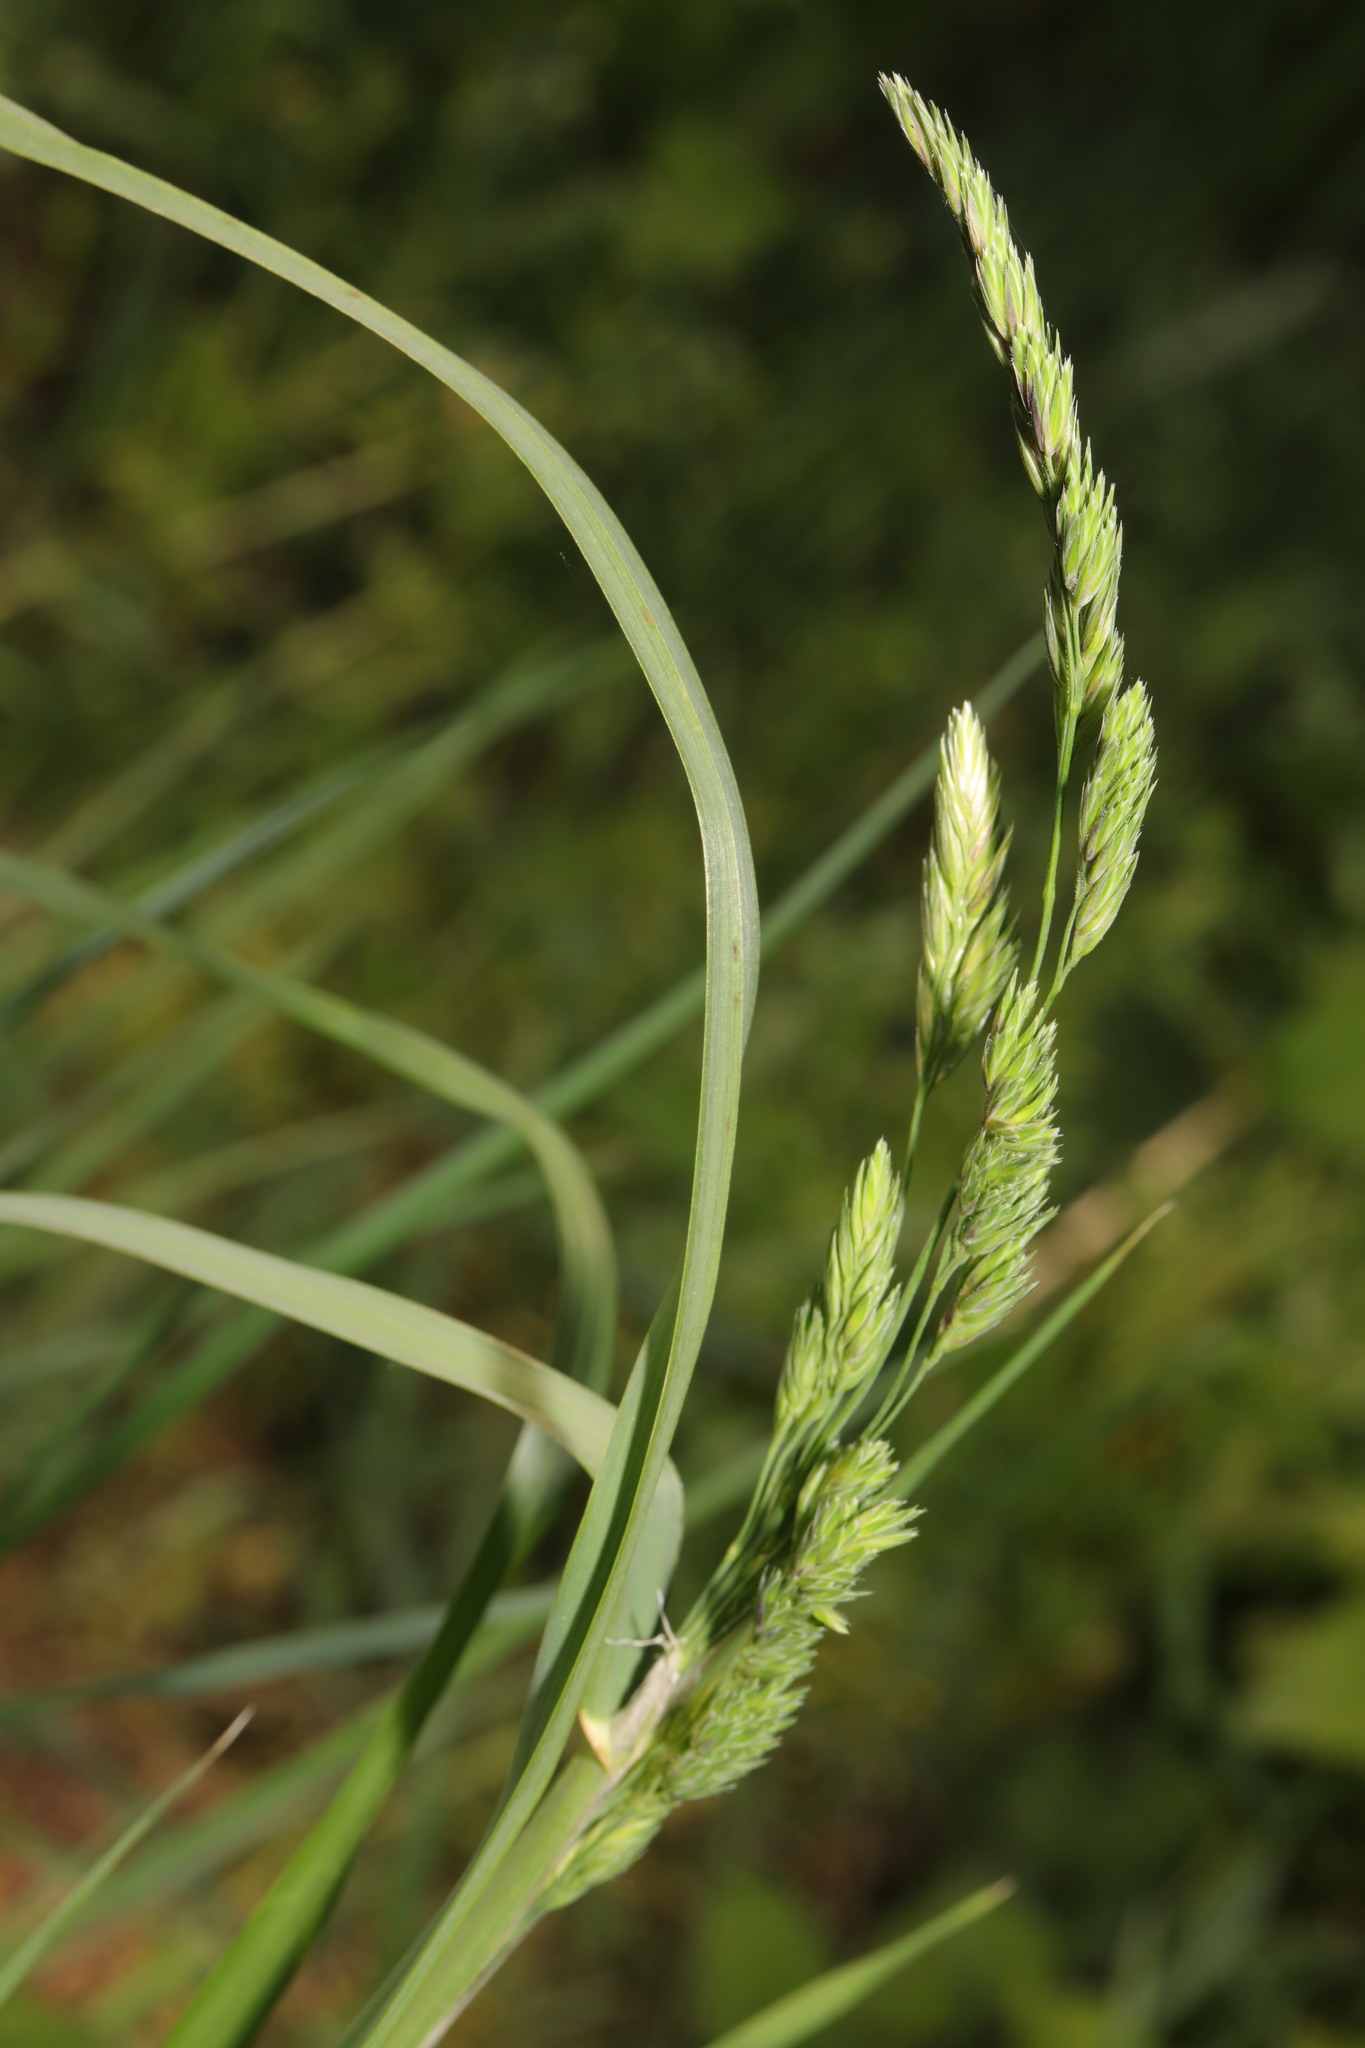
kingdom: Plantae
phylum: Tracheophyta
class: Liliopsida
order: Poales
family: Poaceae
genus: Dactylis
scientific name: Dactylis glomerata
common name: Orchardgrass
